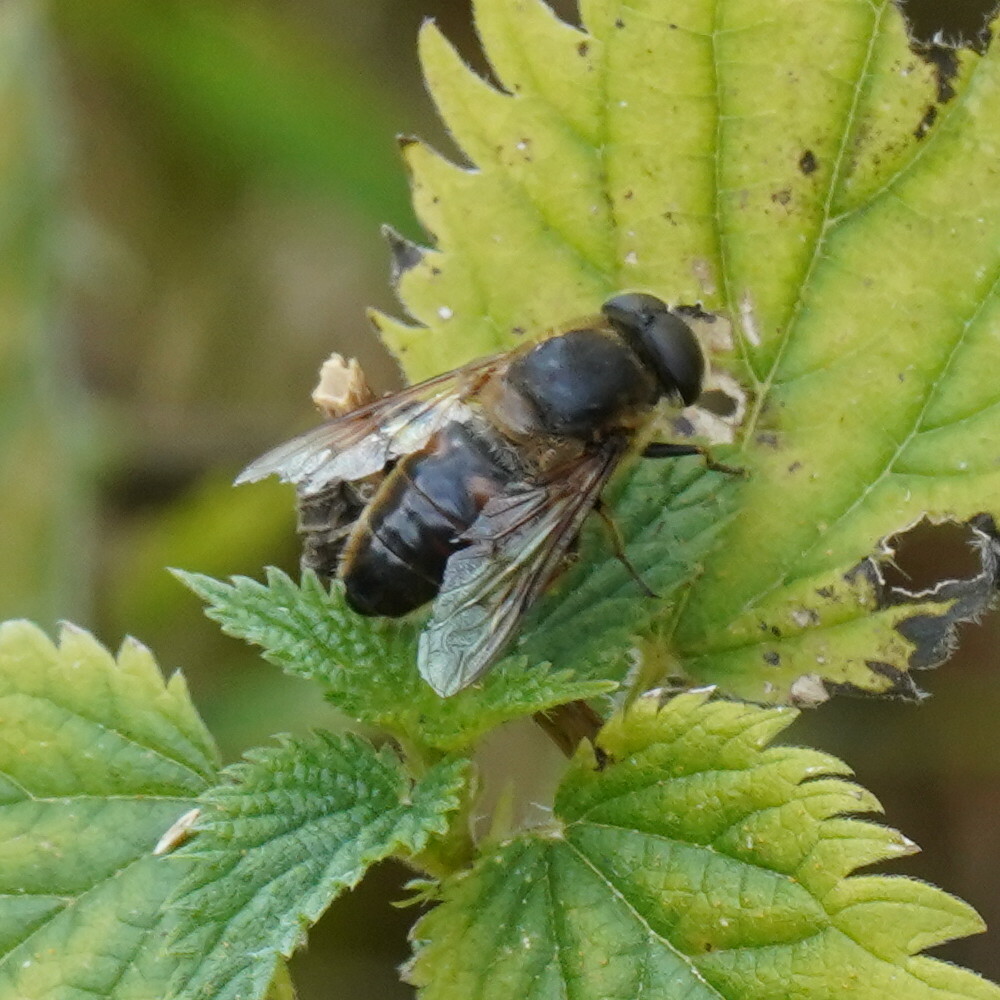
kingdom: Animalia
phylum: Arthropoda
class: Insecta
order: Diptera
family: Syrphidae
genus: Eristalis
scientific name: Eristalis tenax
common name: Drone fly
